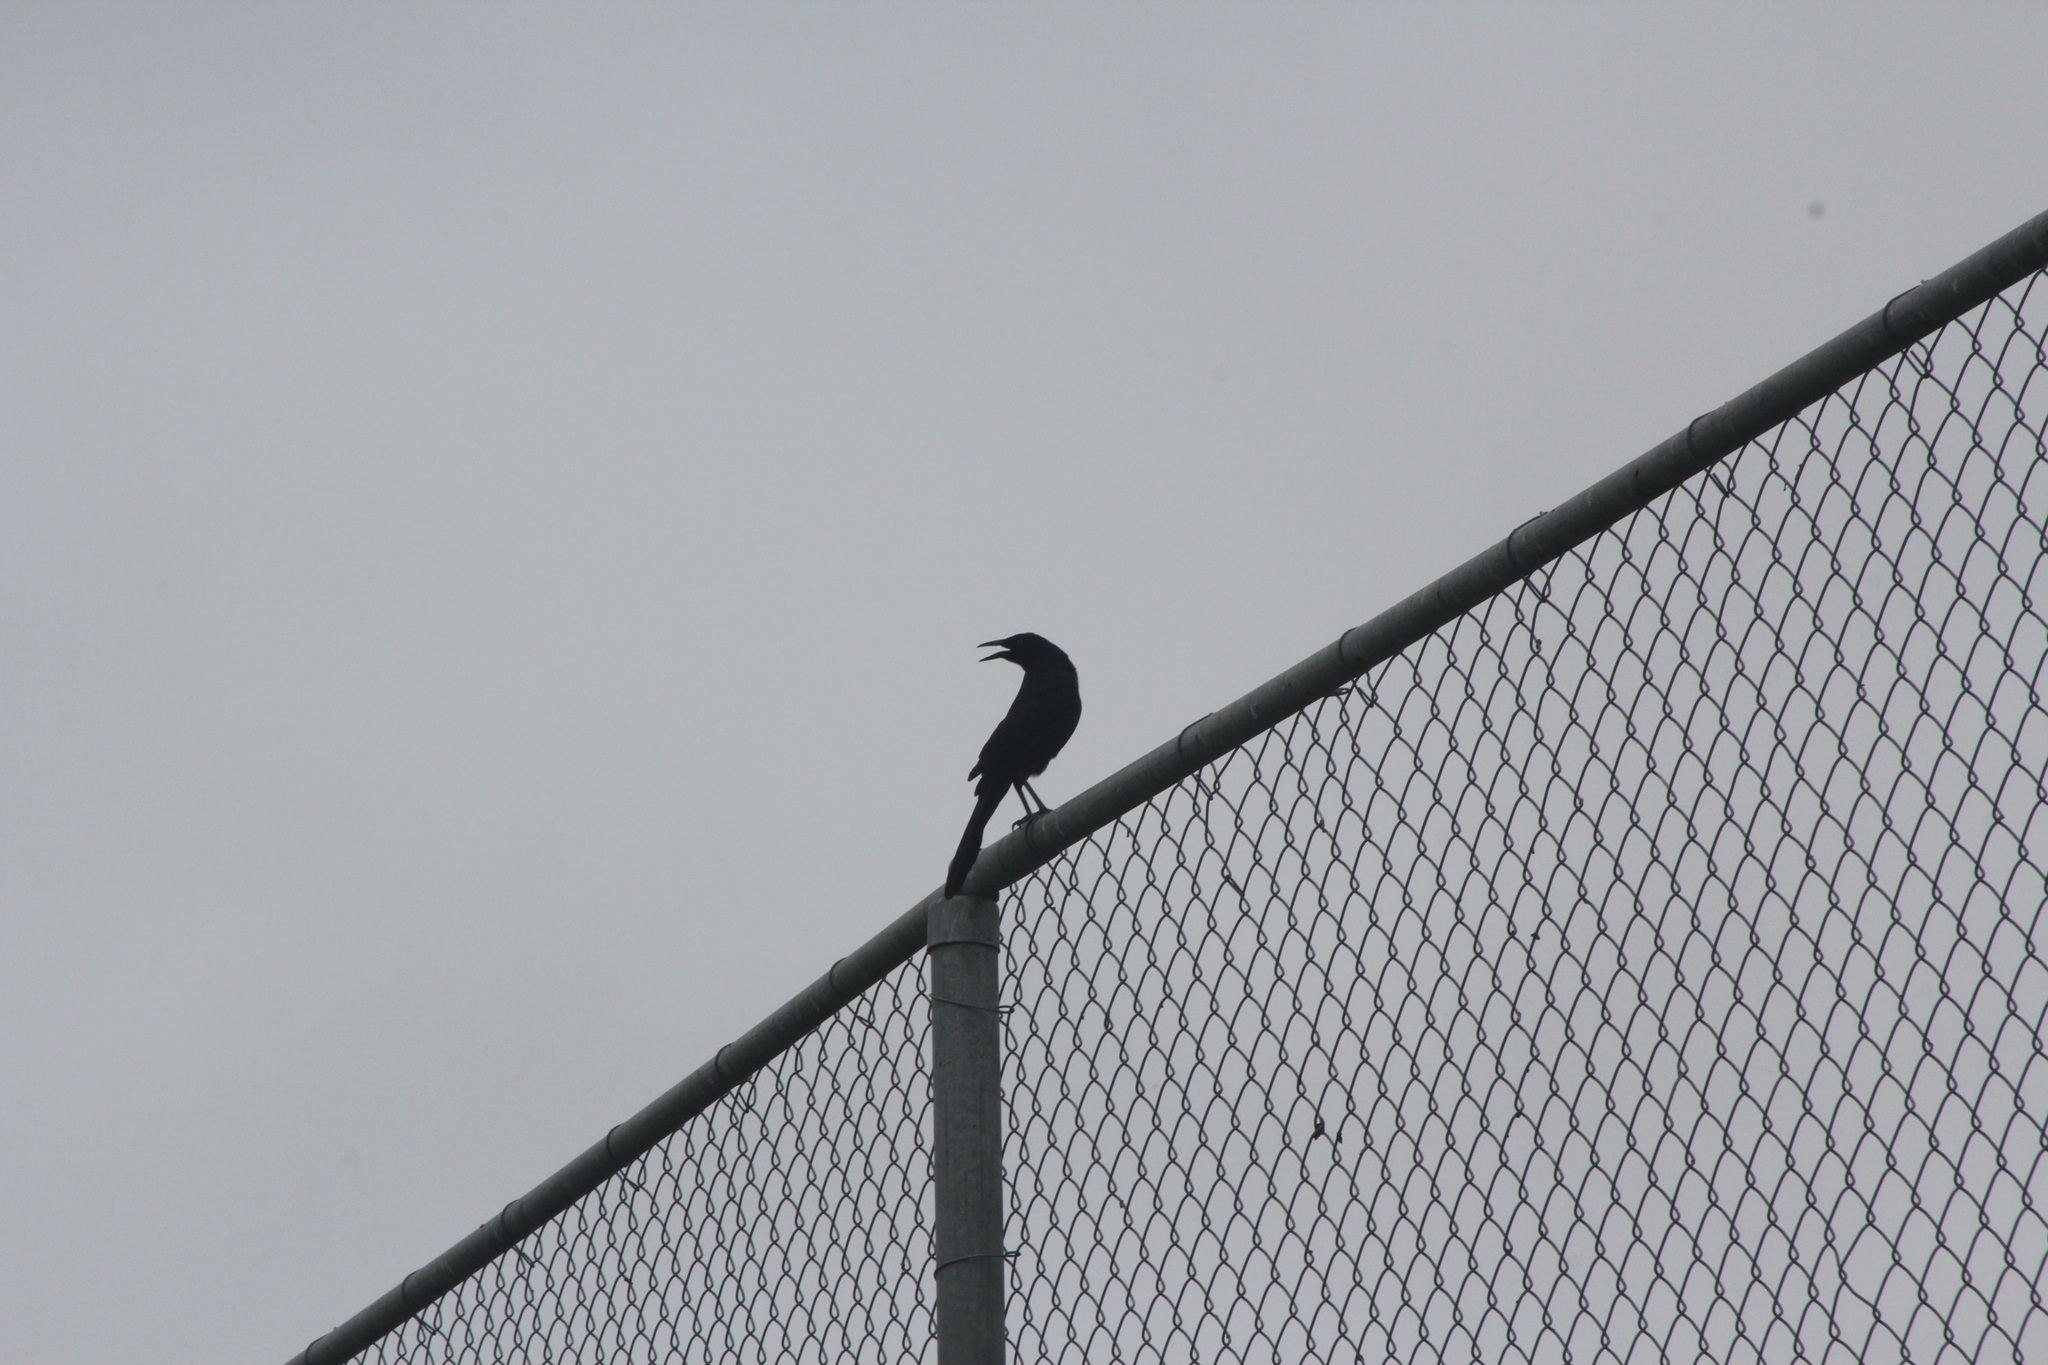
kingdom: Animalia
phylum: Chordata
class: Aves
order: Passeriformes
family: Icteridae
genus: Quiscalus
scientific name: Quiscalus mexicanus
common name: Great-tailed grackle
